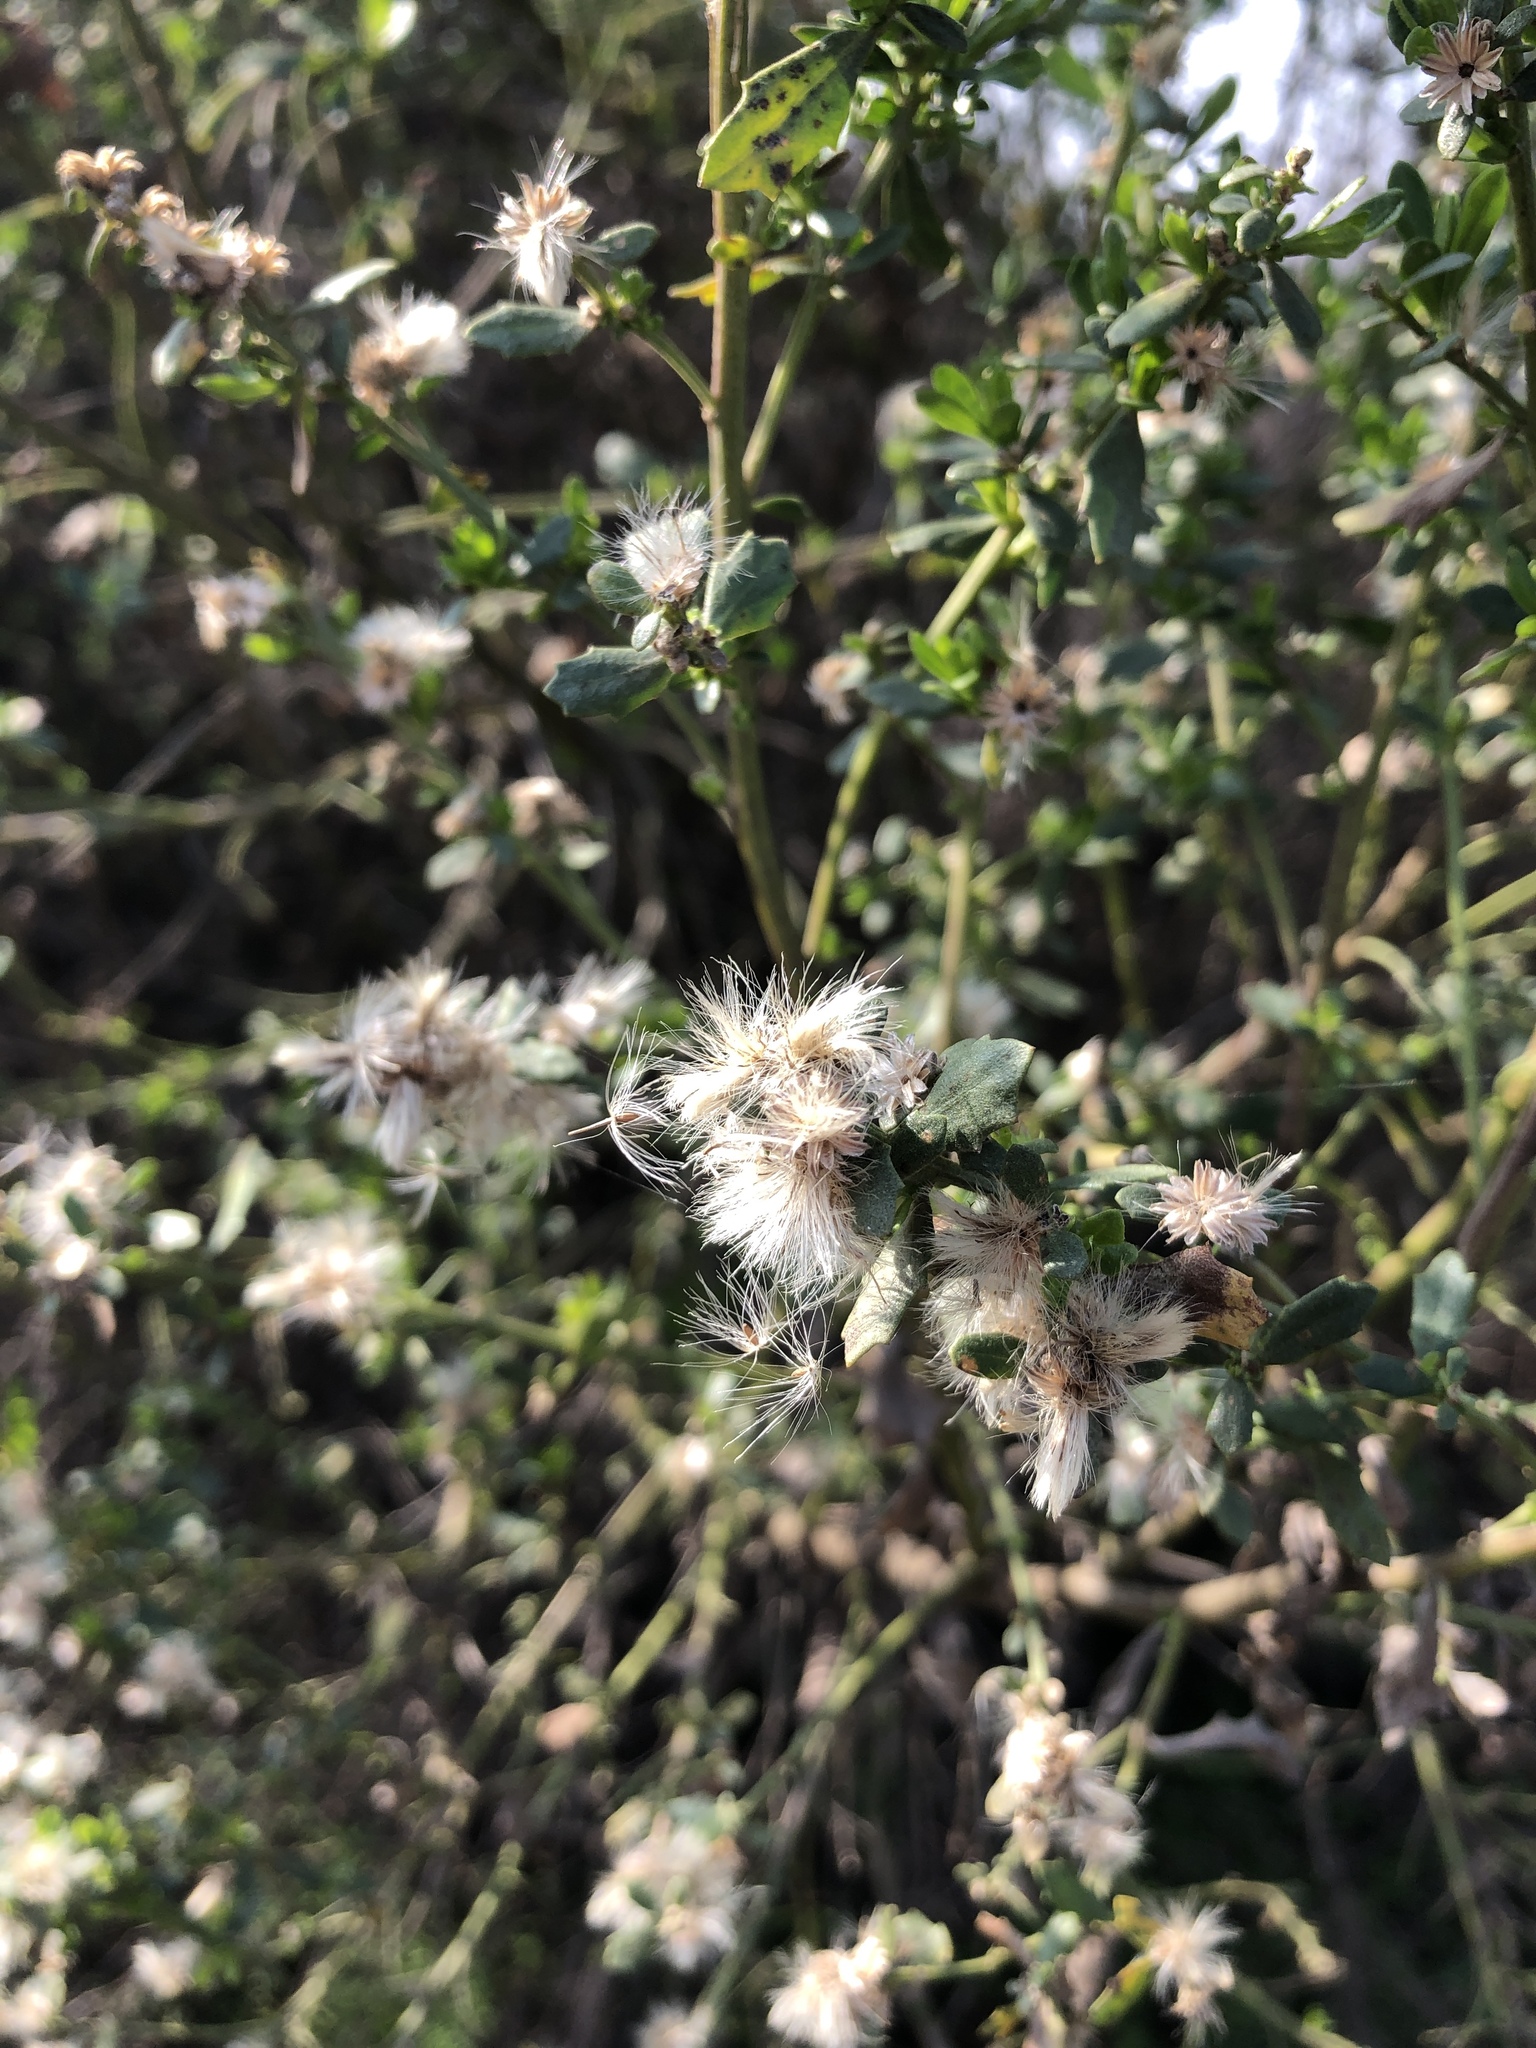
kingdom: Plantae
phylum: Tracheophyta
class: Magnoliopsida
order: Asterales
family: Asteraceae
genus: Baccharis
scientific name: Baccharis pilularis
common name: Coyotebrush
